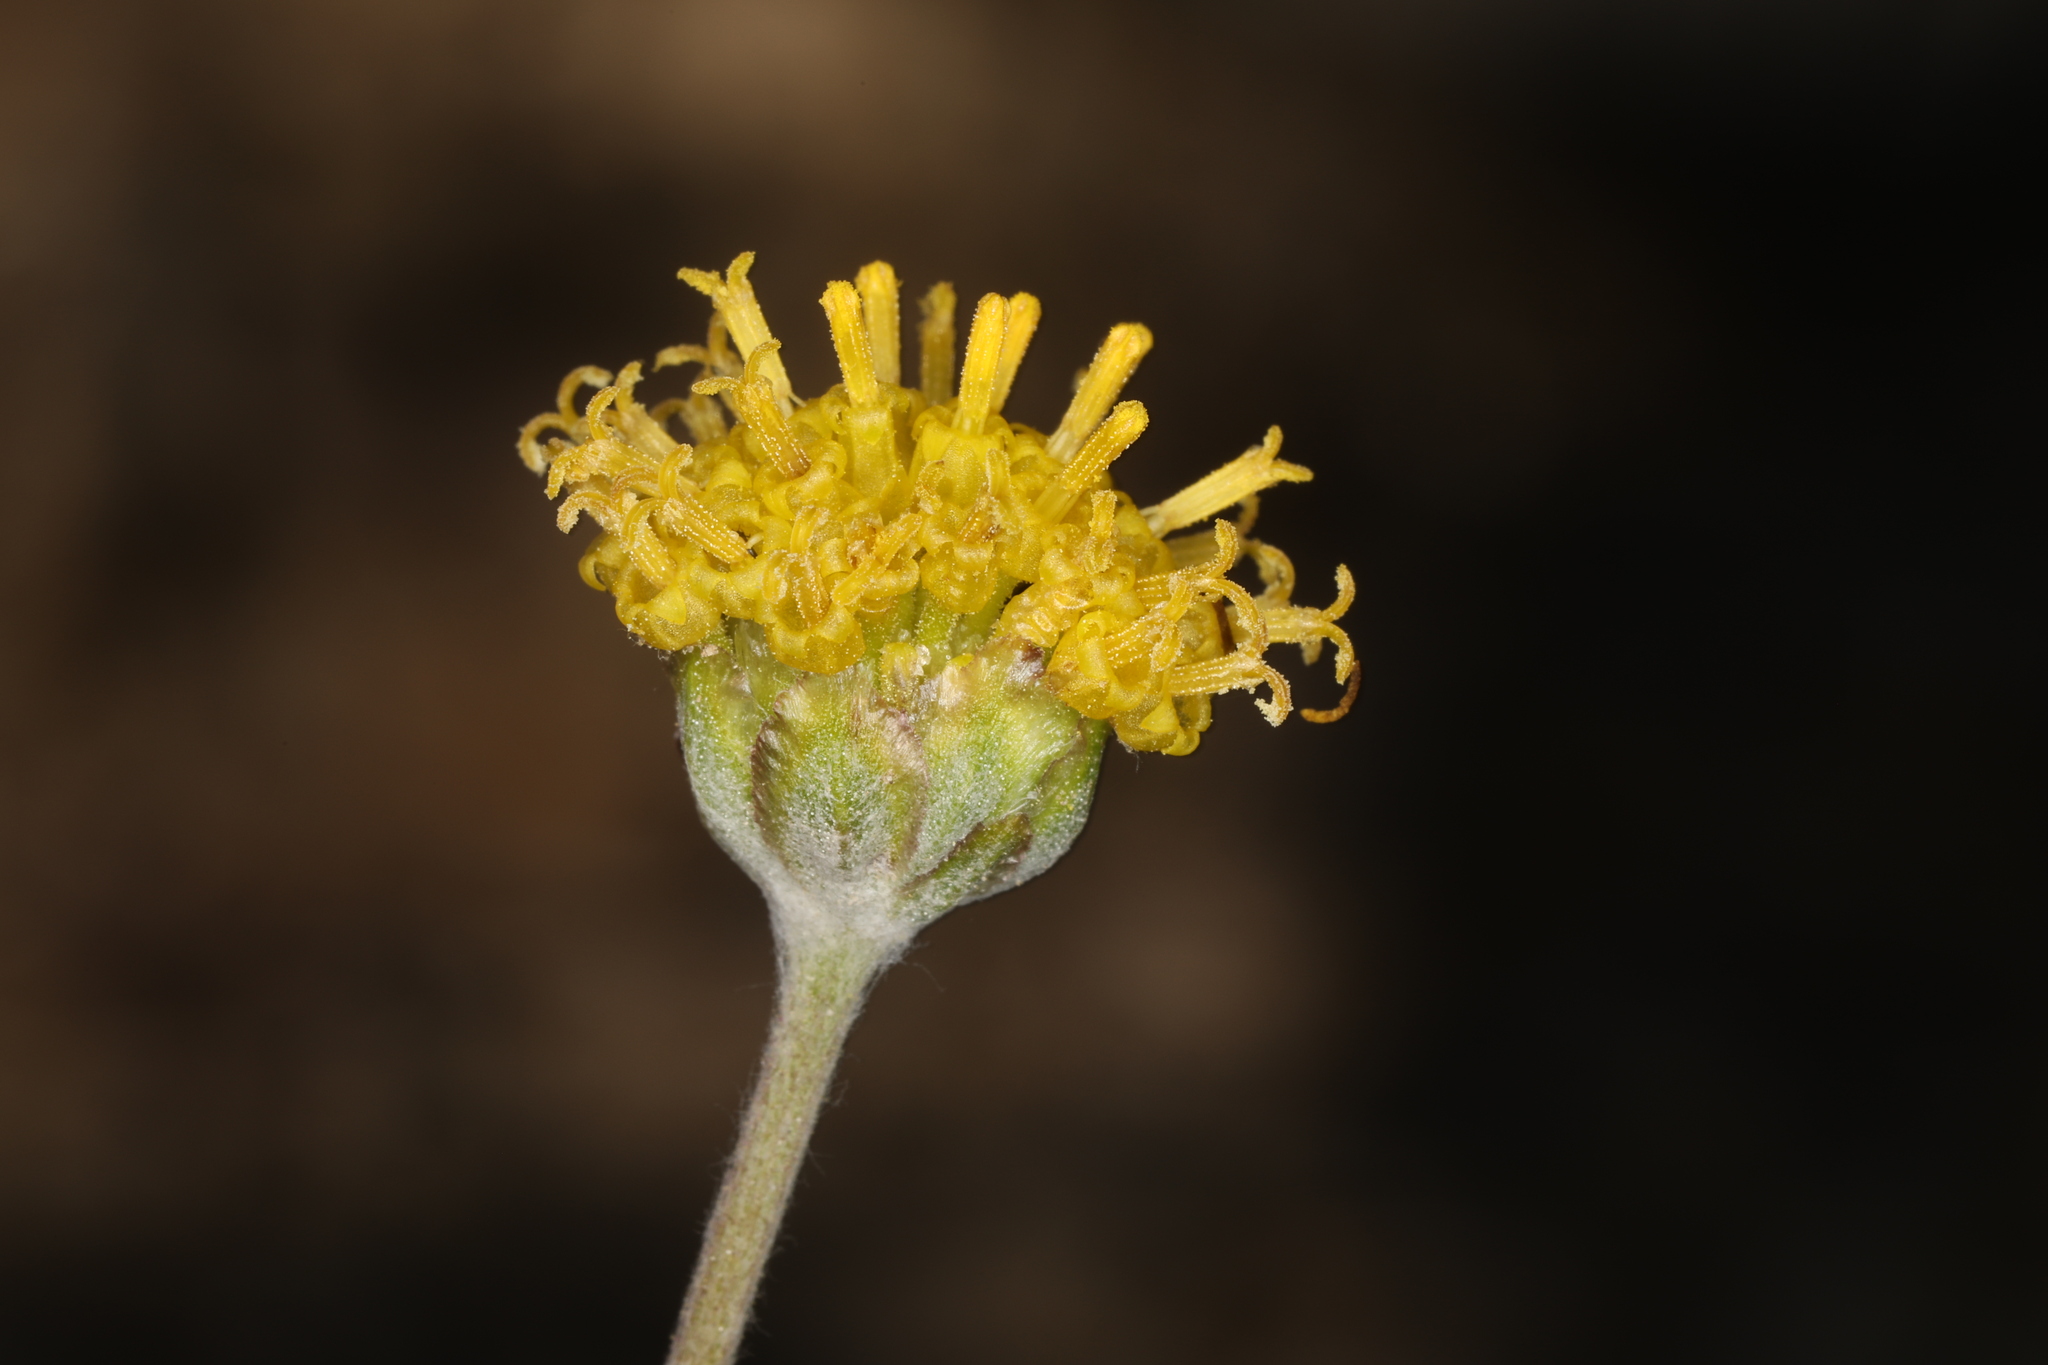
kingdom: Plantae
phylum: Tracheophyta
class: Magnoliopsida
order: Asterales
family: Asteraceae
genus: Hymenopappus
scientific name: Hymenopappus filifolius
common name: Columbia cutleaf
